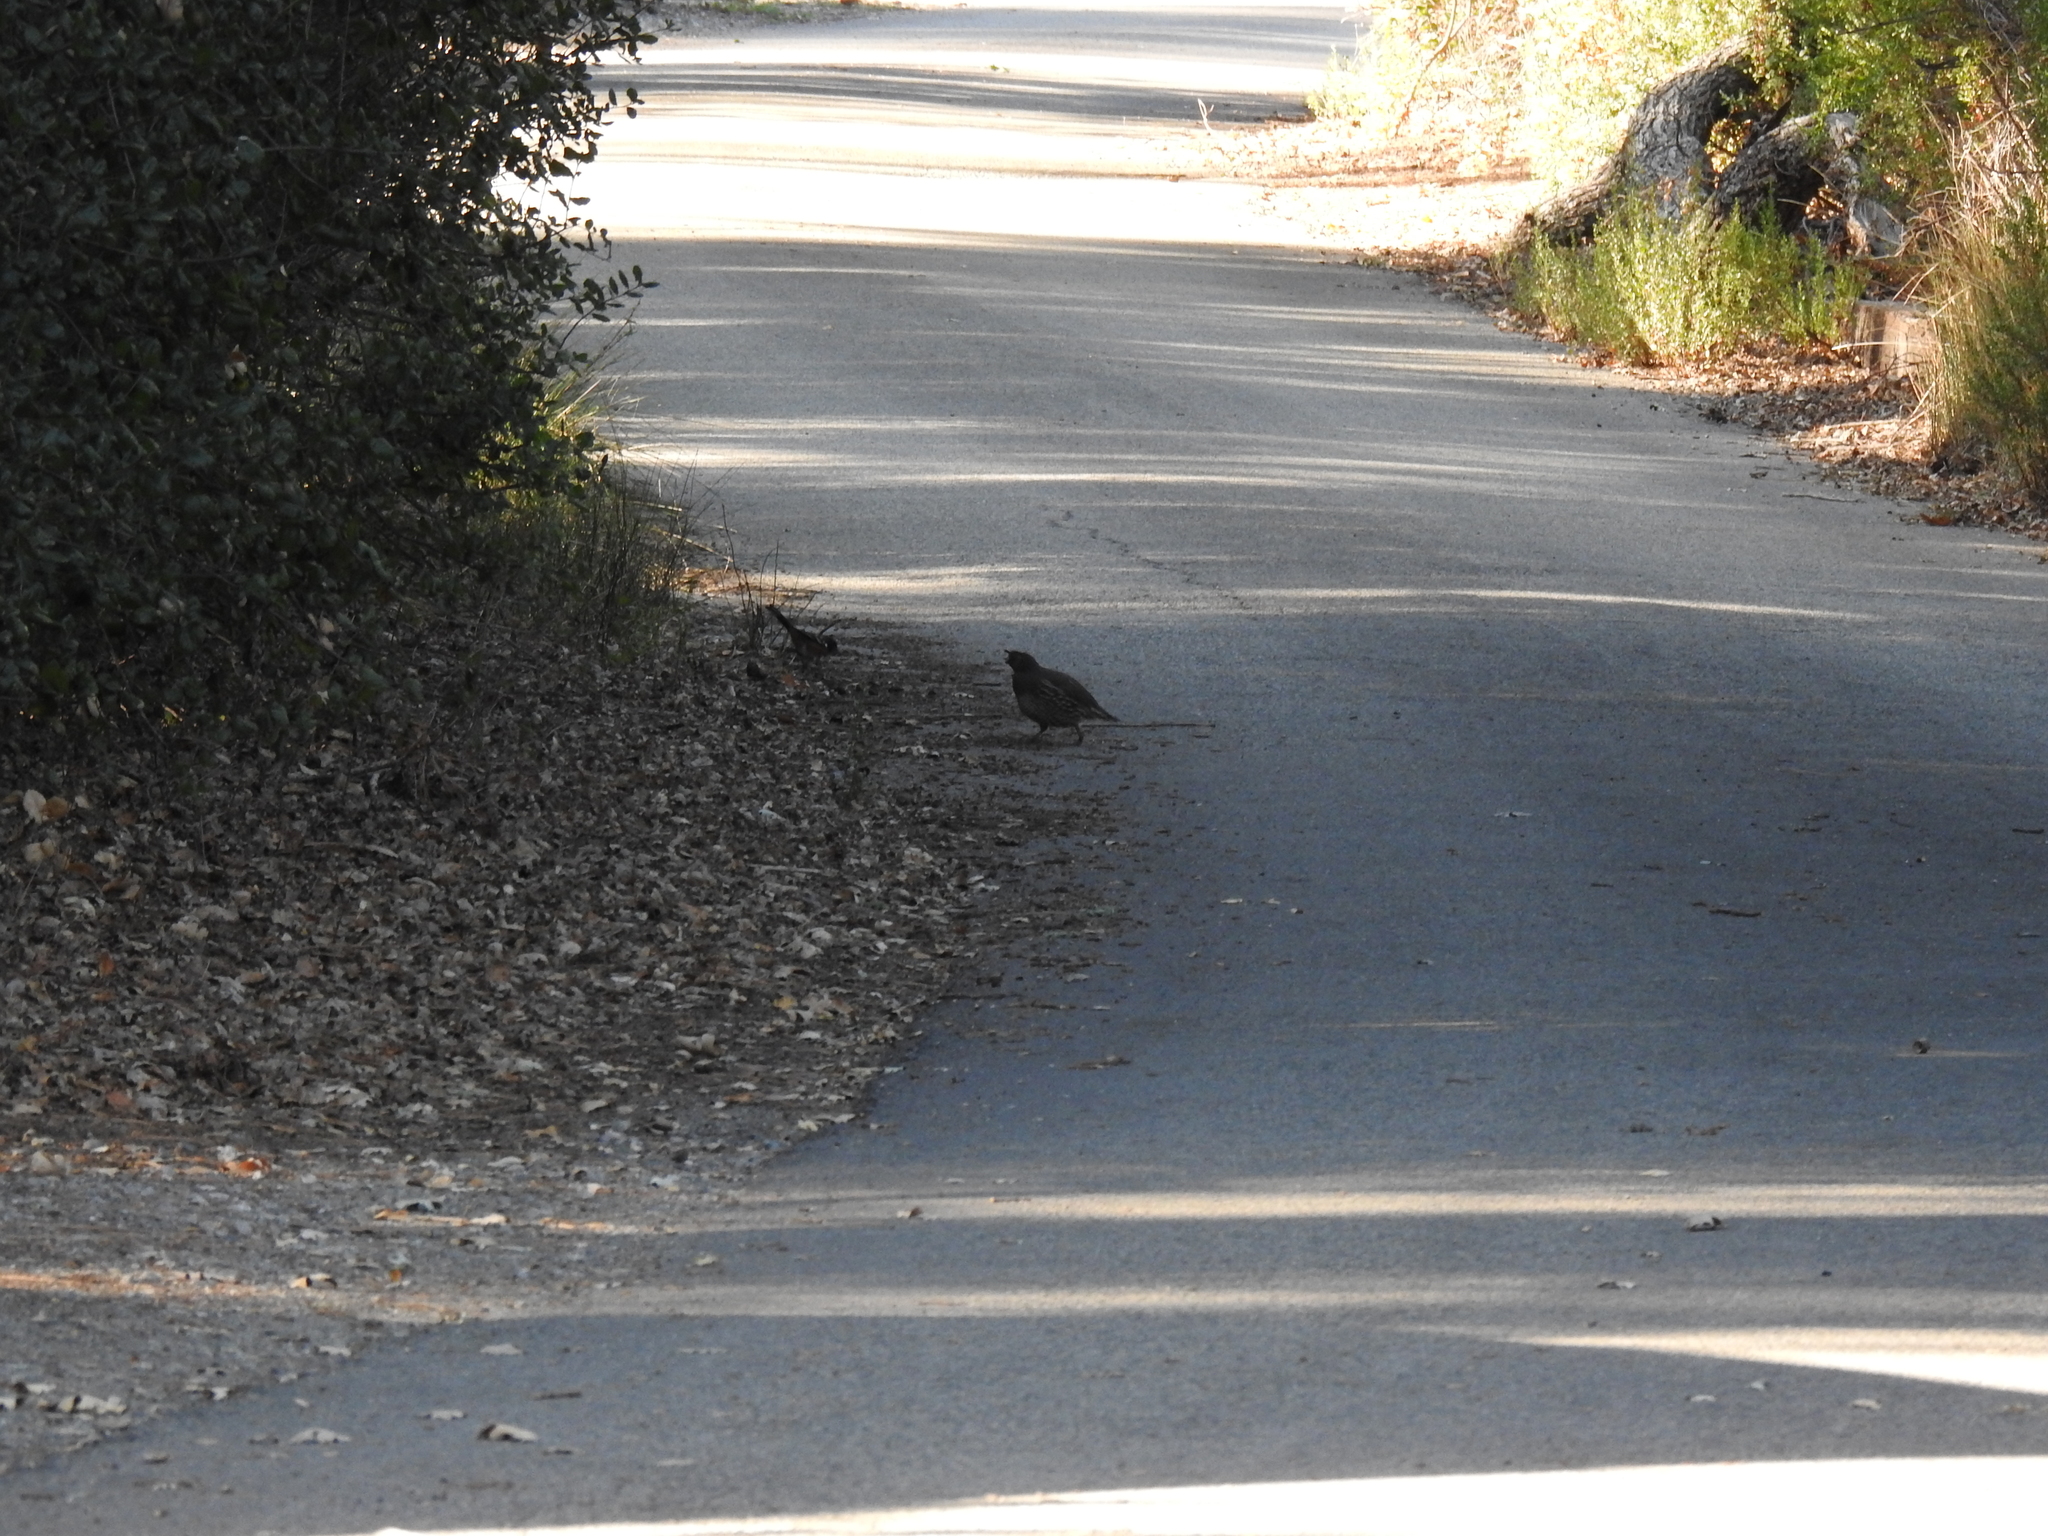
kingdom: Animalia
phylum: Chordata
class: Aves
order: Galliformes
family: Odontophoridae
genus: Callipepla
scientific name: Callipepla californica
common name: California quail
